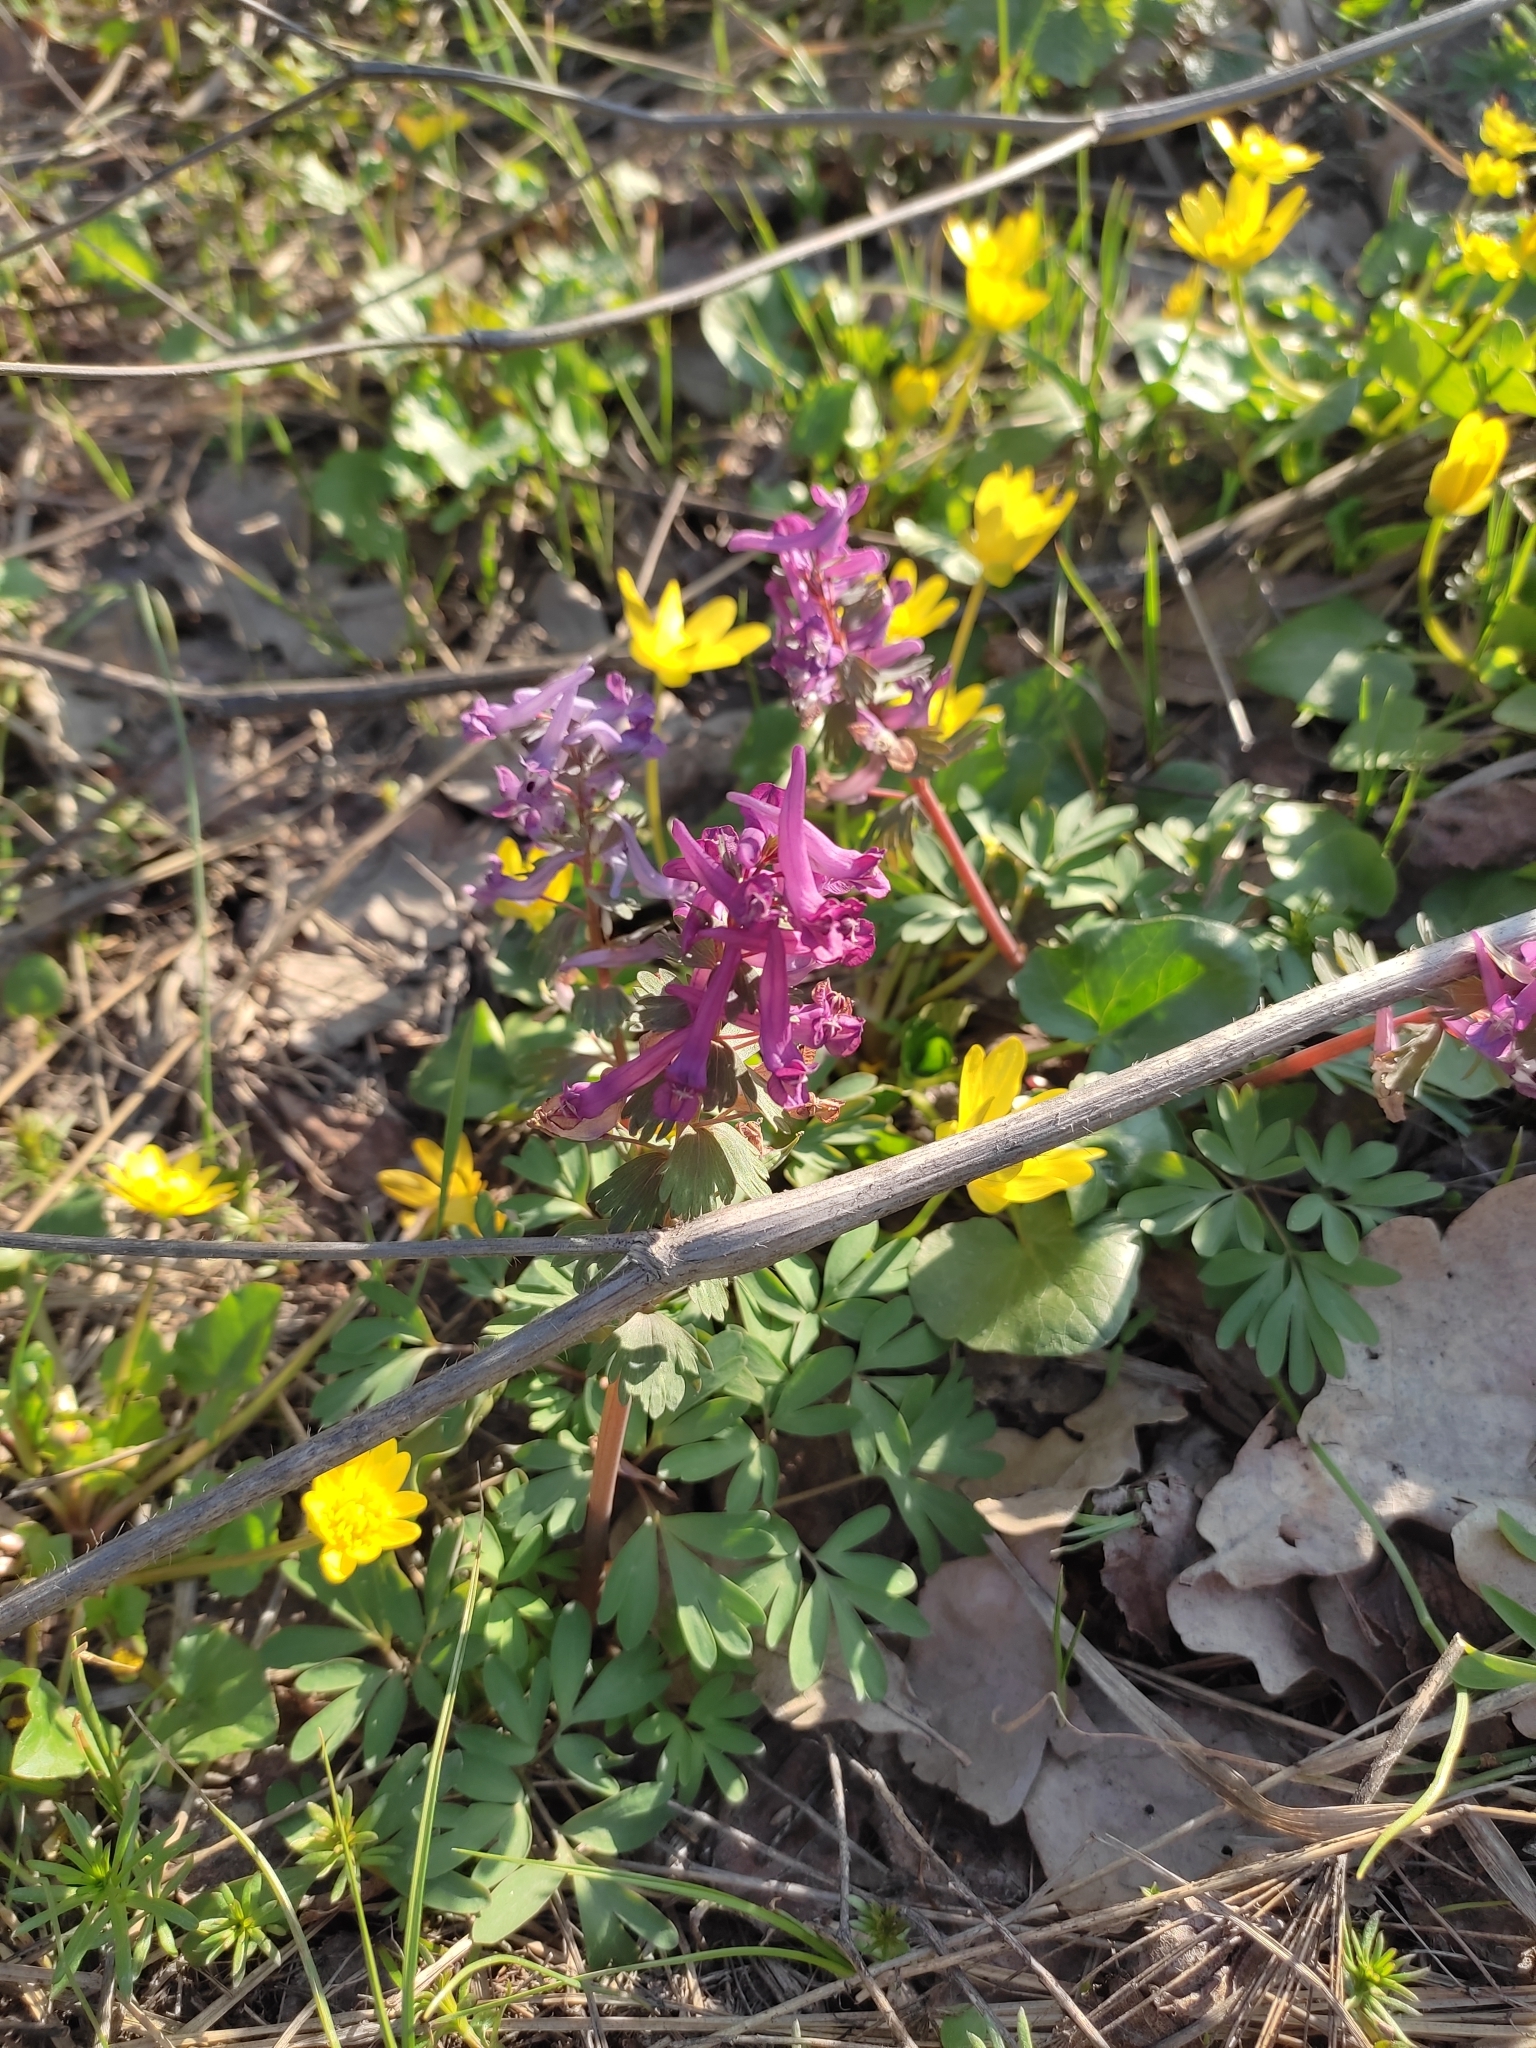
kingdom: Plantae
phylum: Tracheophyta
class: Magnoliopsida
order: Ranunculales
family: Papaveraceae
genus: Corydalis
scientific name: Corydalis solida
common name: Bird-in-a-bush
